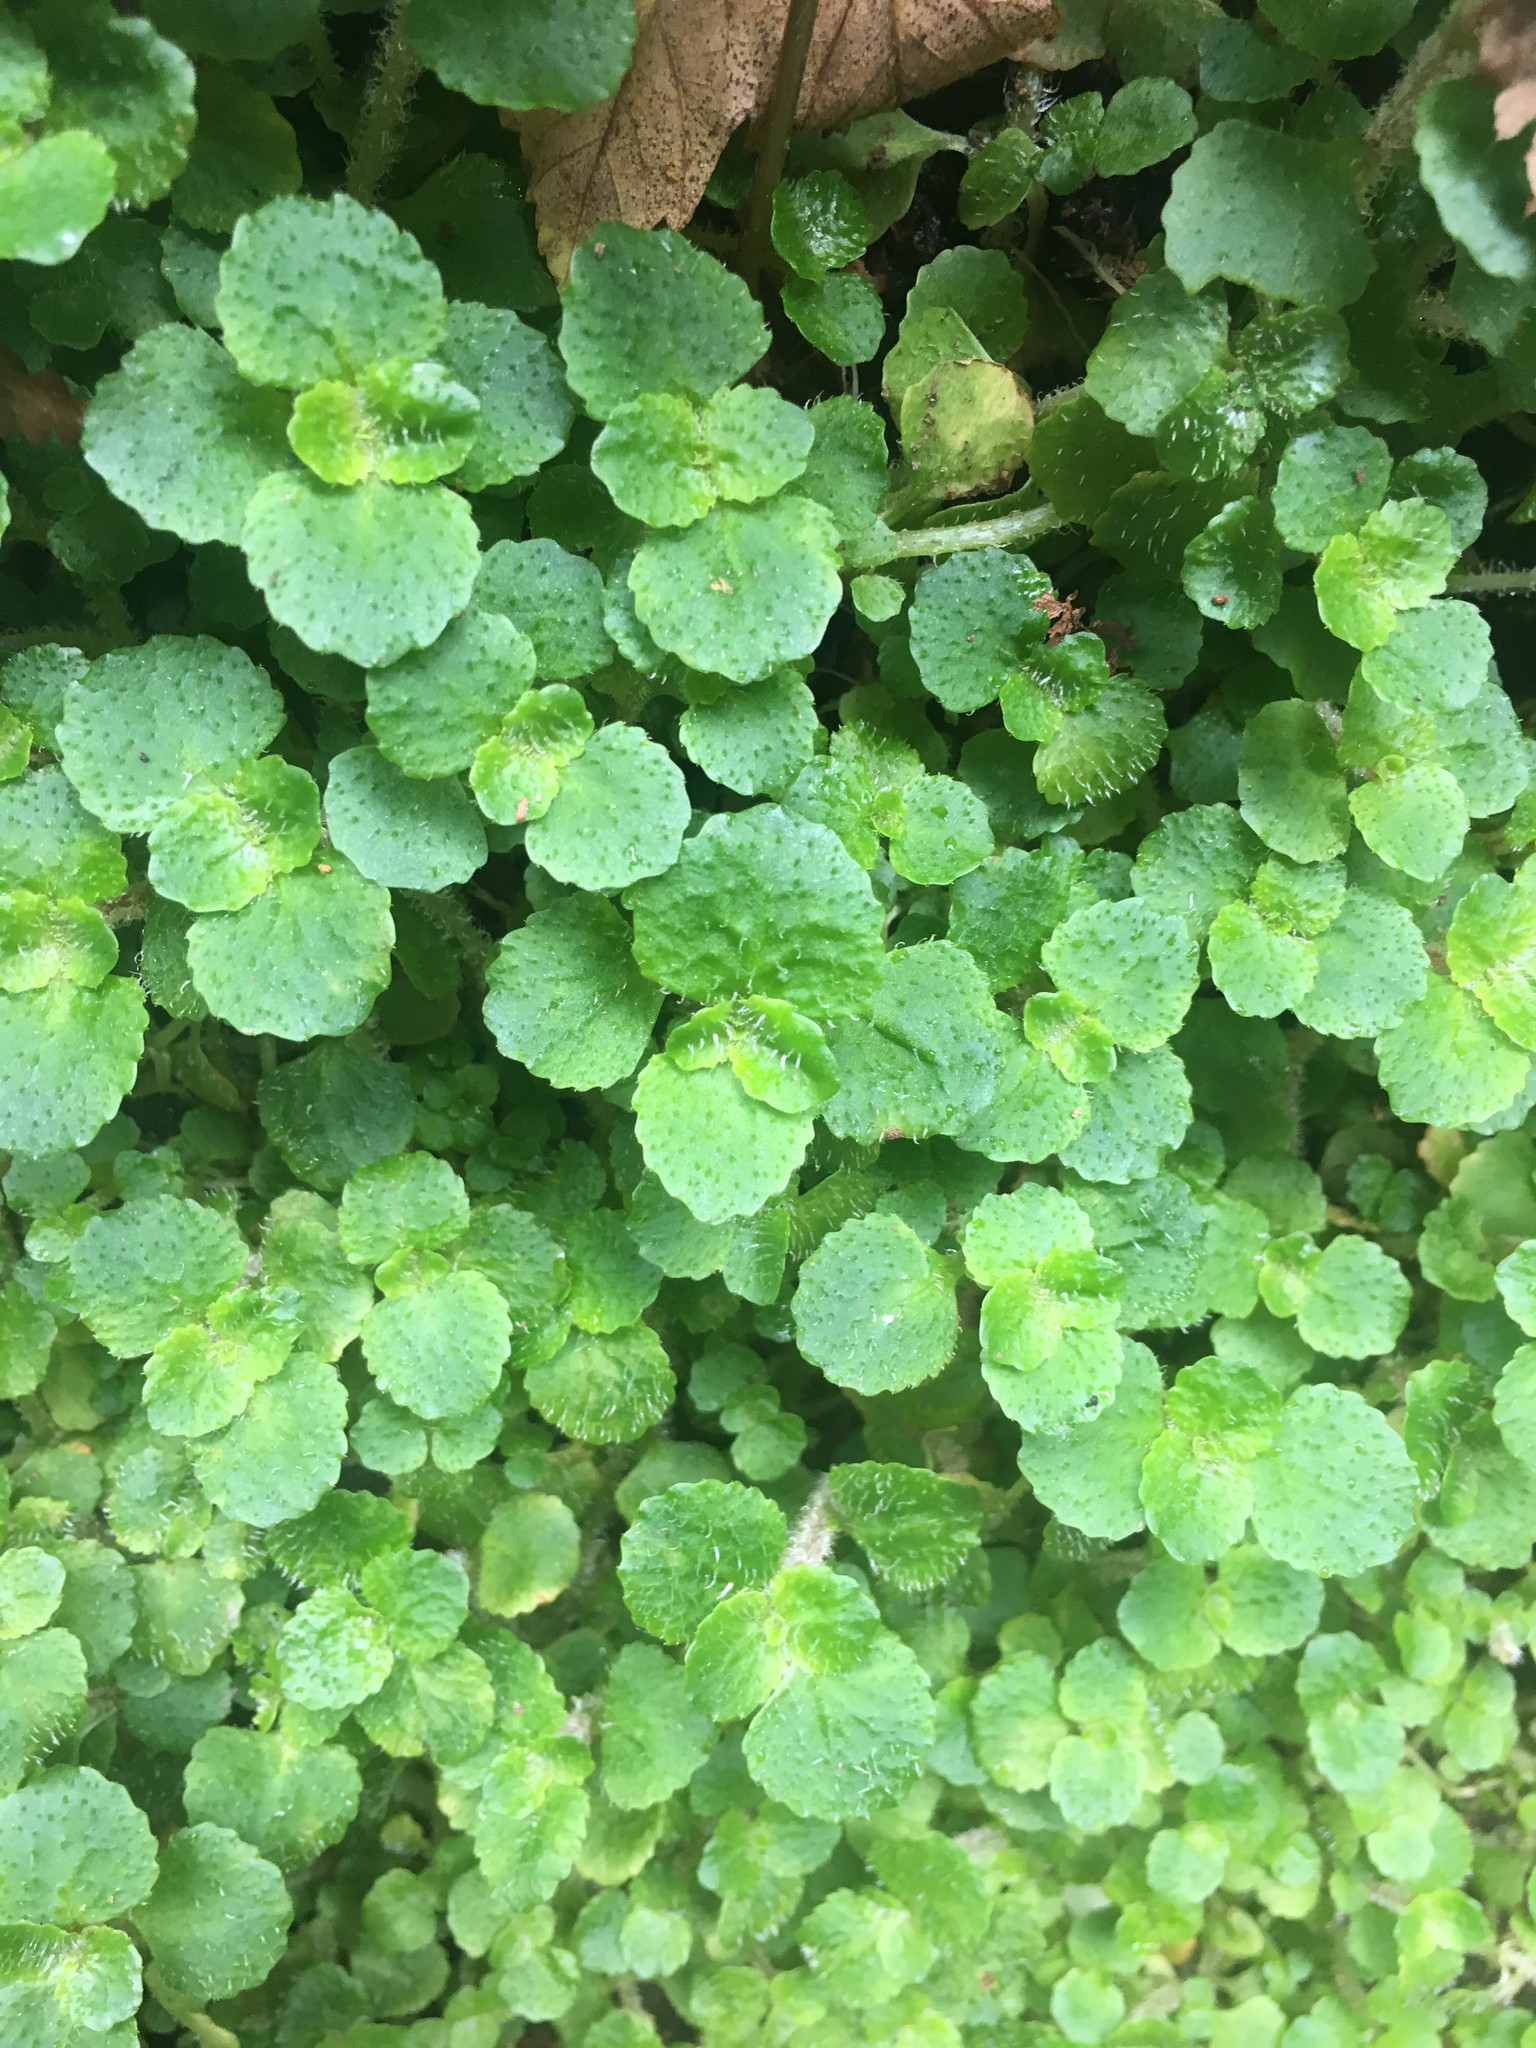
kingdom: Plantae
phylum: Tracheophyta
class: Magnoliopsida
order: Saxifragales
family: Saxifragaceae
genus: Chrysosplenium
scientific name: Chrysosplenium oppositifolium
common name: Opposite-leaved golden-saxifrage
